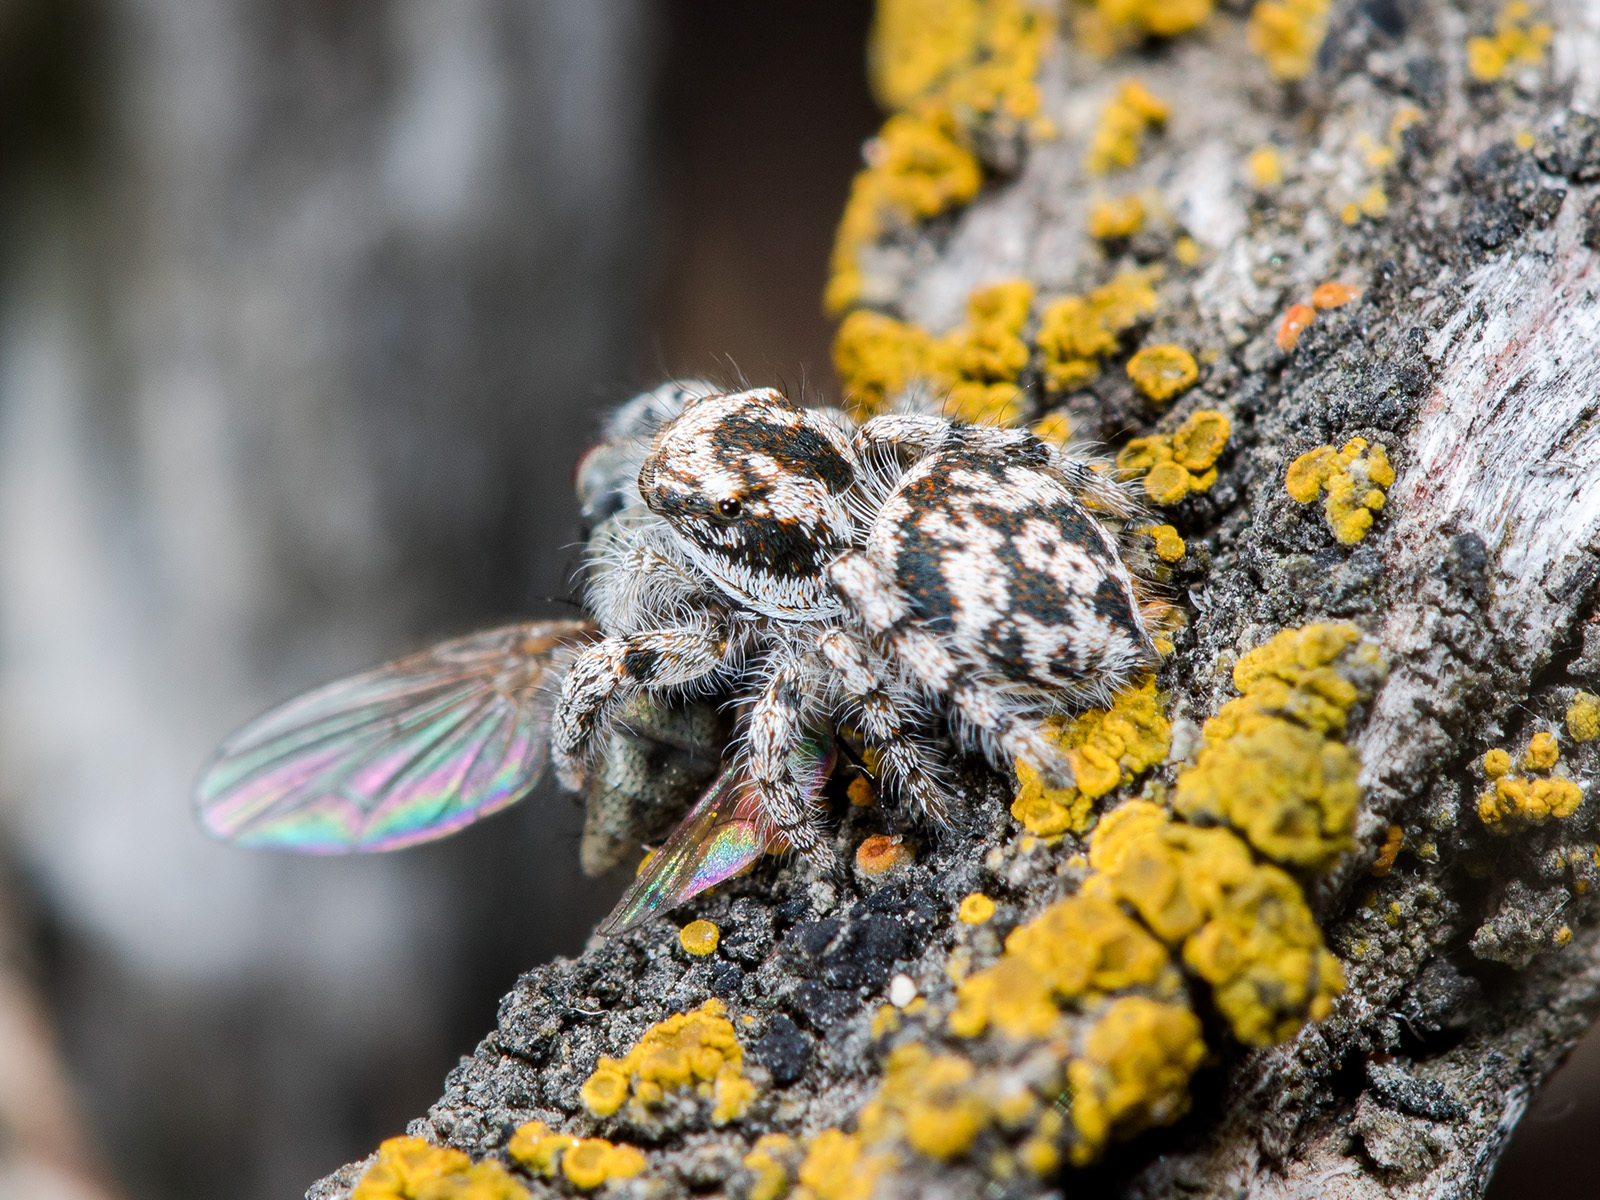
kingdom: Animalia
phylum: Arthropoda
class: Arachnida
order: Araneae
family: Salticidae
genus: Pseudomogrus
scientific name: Pseudomogrus dalaensis
